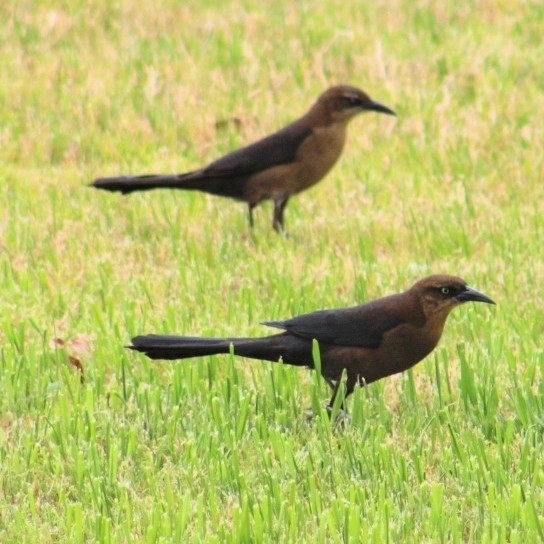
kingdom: Animalia
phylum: Chordata
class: Aves
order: Passeriformes
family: Icteridae
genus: Quiscalus
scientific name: Quiscalus mexicanus
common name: Great-tailed grackle
